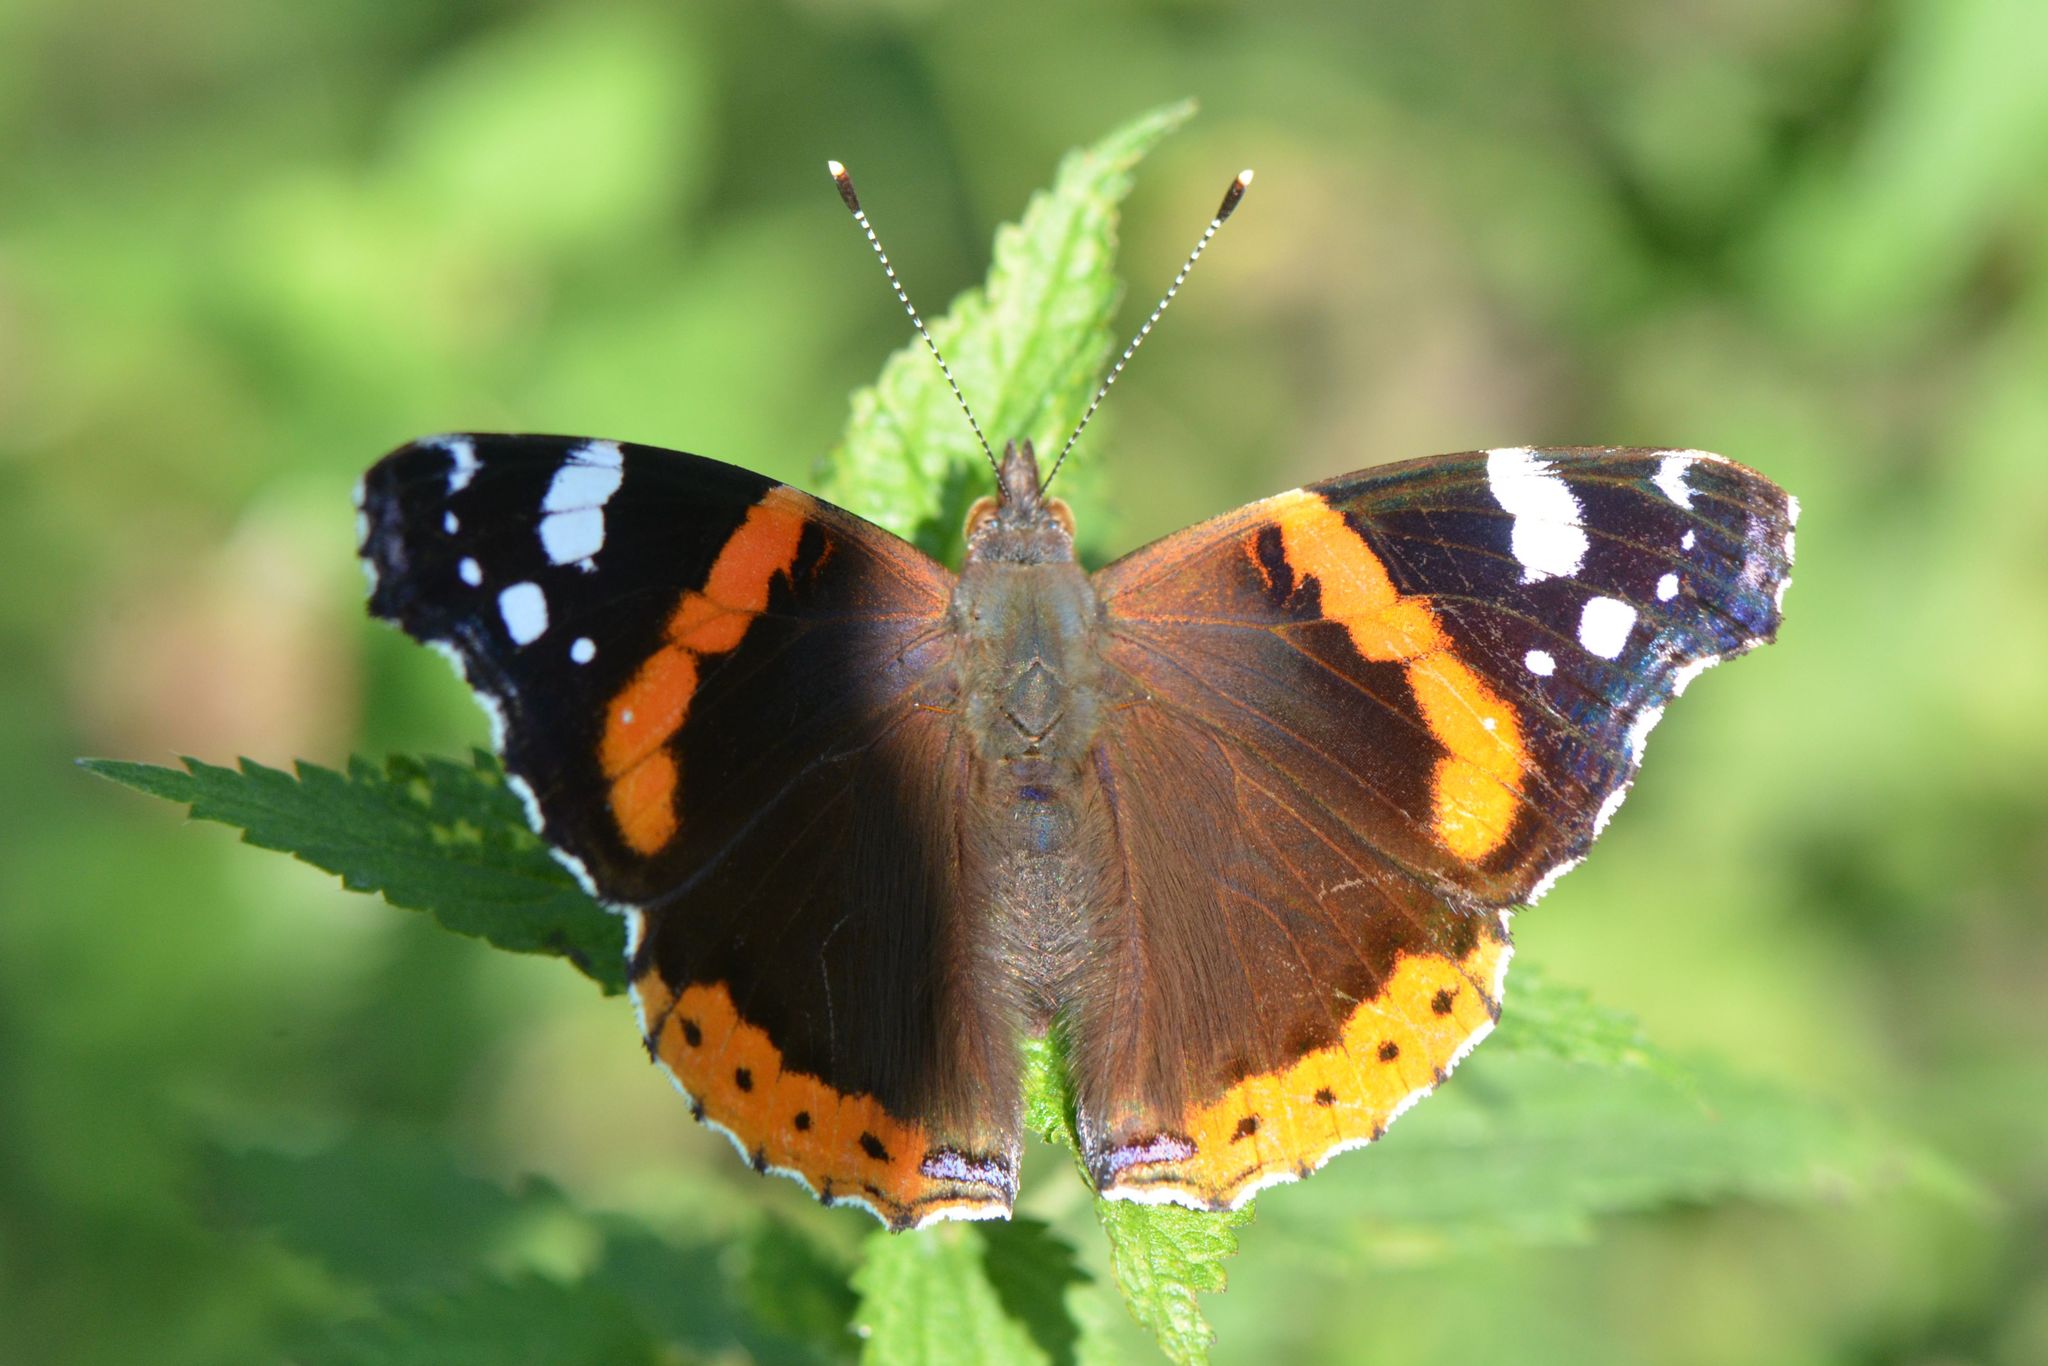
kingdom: Animalia
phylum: Arthropoda
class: Insecta
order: Lepidoptera
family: Nymphalidae
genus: Vanessa
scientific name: Vanessa atalanta
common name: Red admiral
